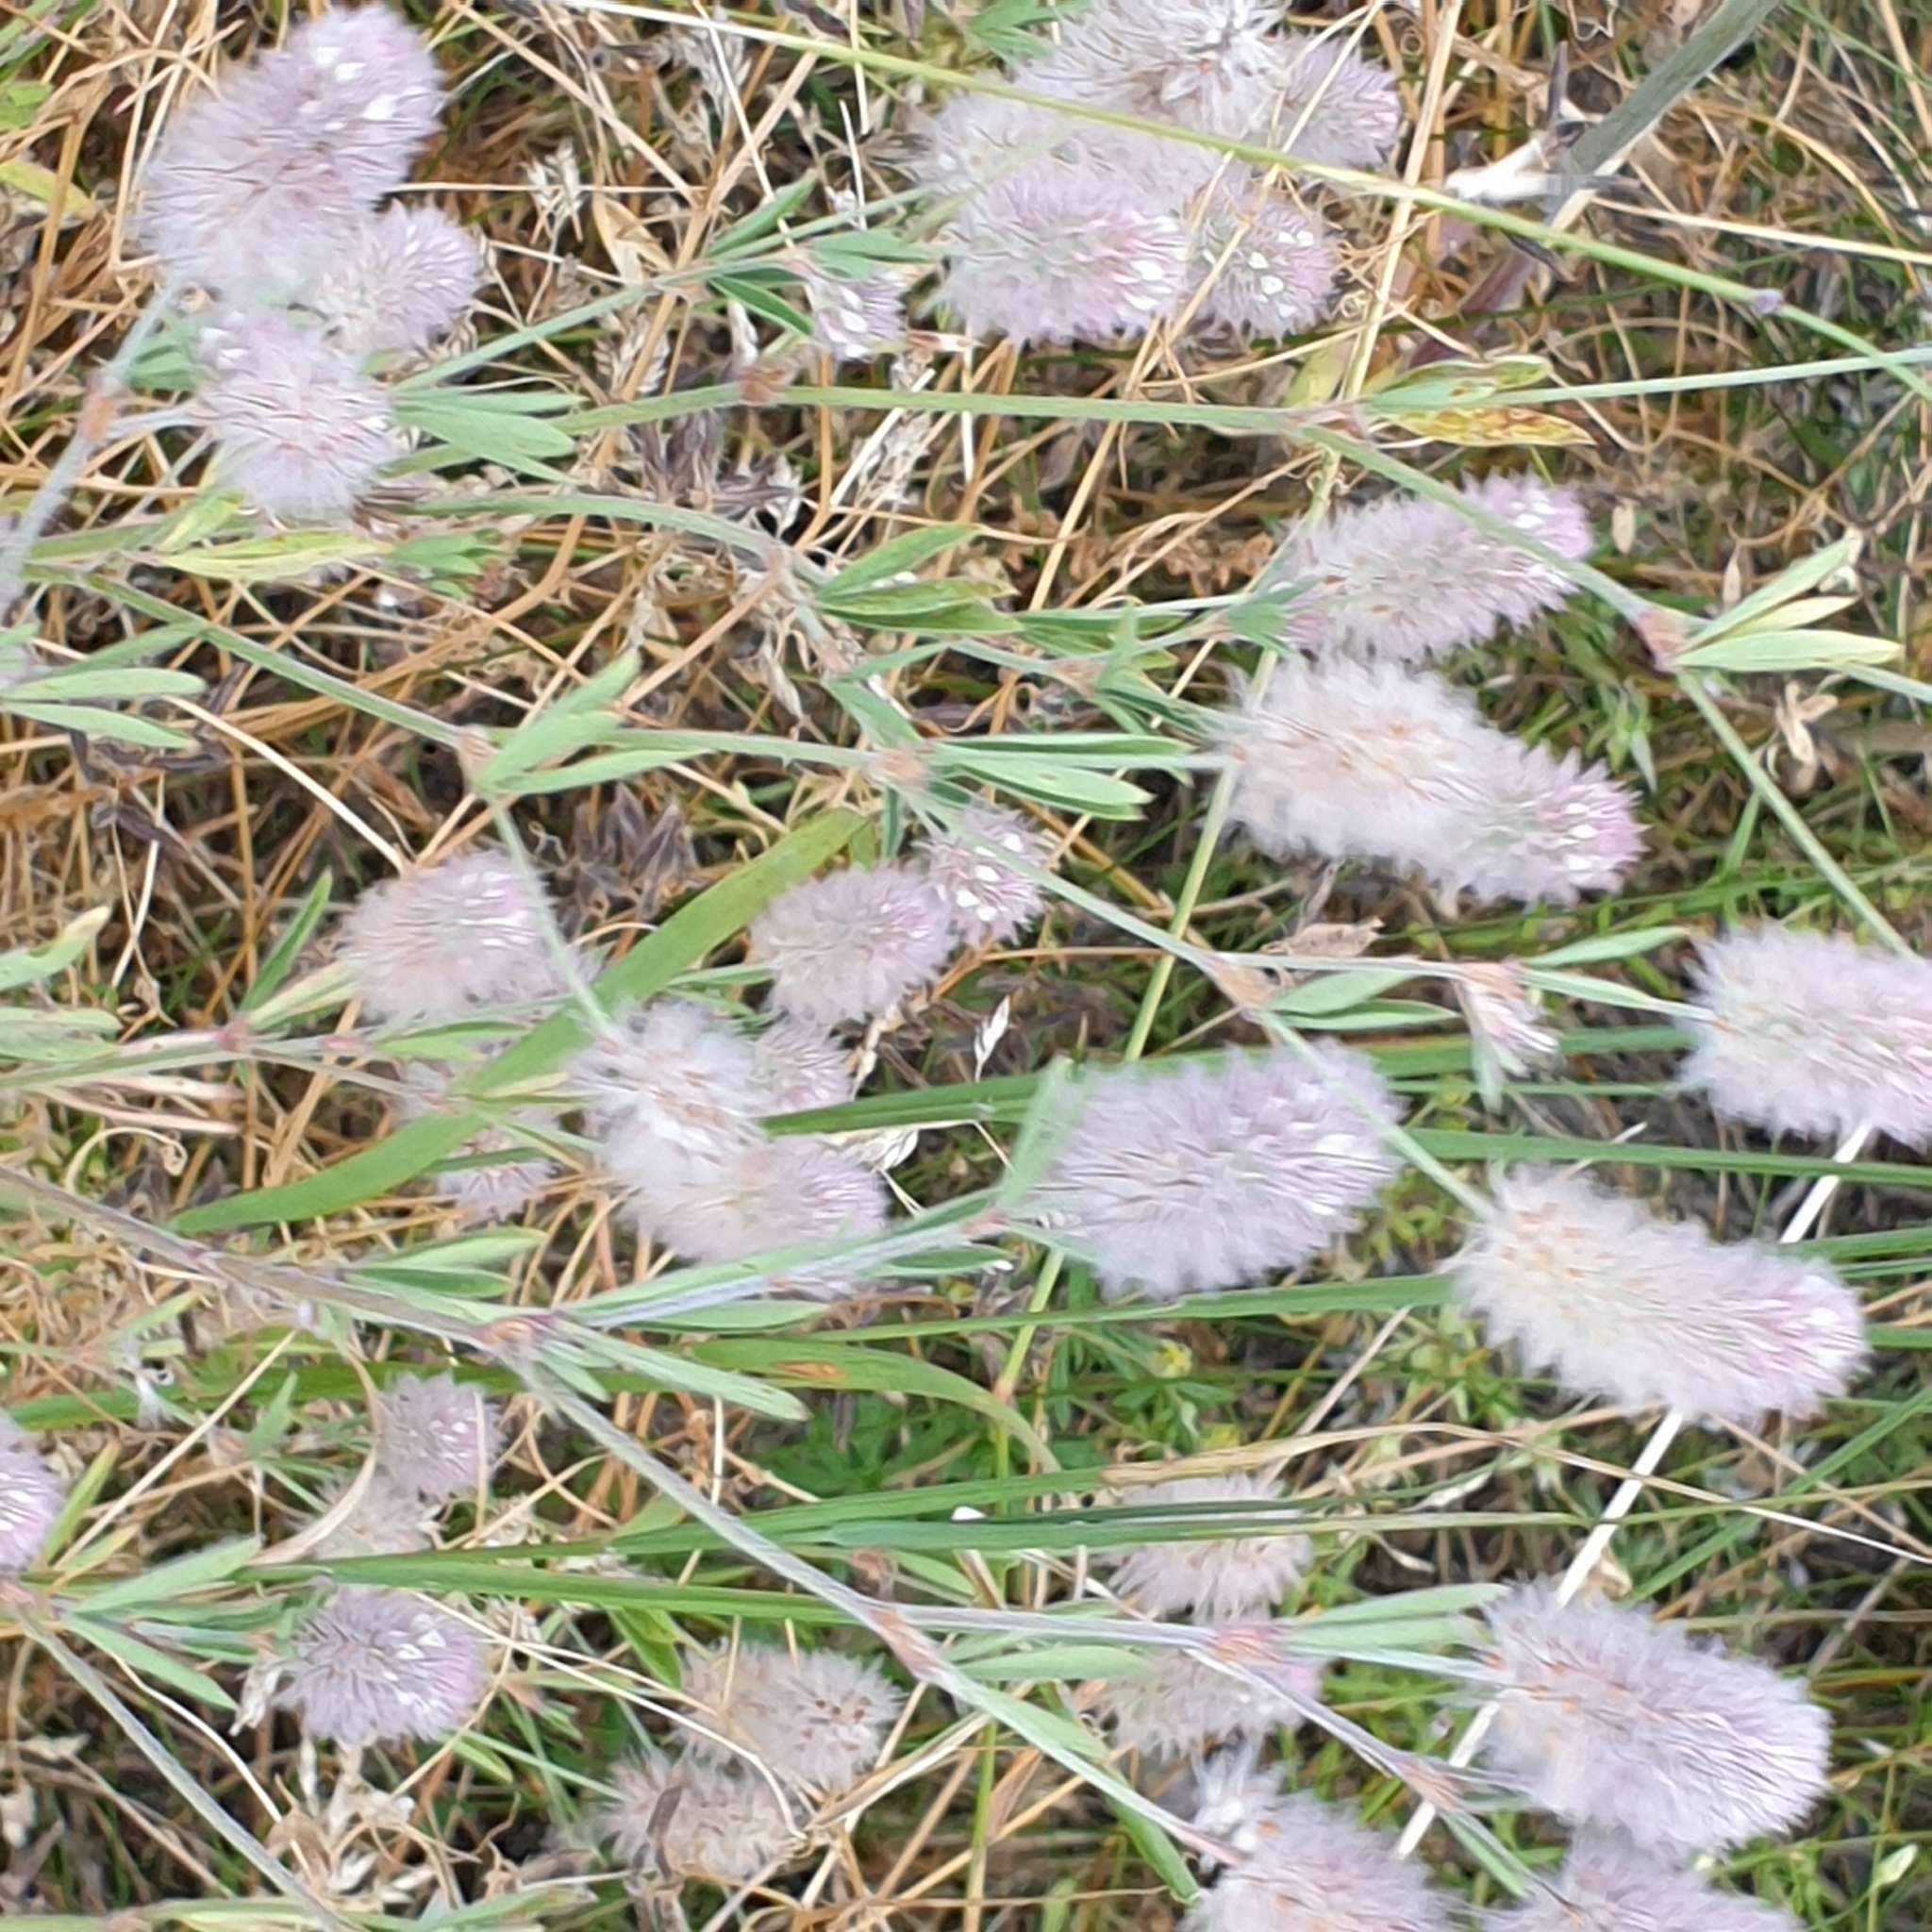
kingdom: Plantae
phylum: Tracheophyta
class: Magnoliopsida
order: Fabales
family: Fabaceae
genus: Trifolium
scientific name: Trifolium arvense
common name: Hare's-foot clover
